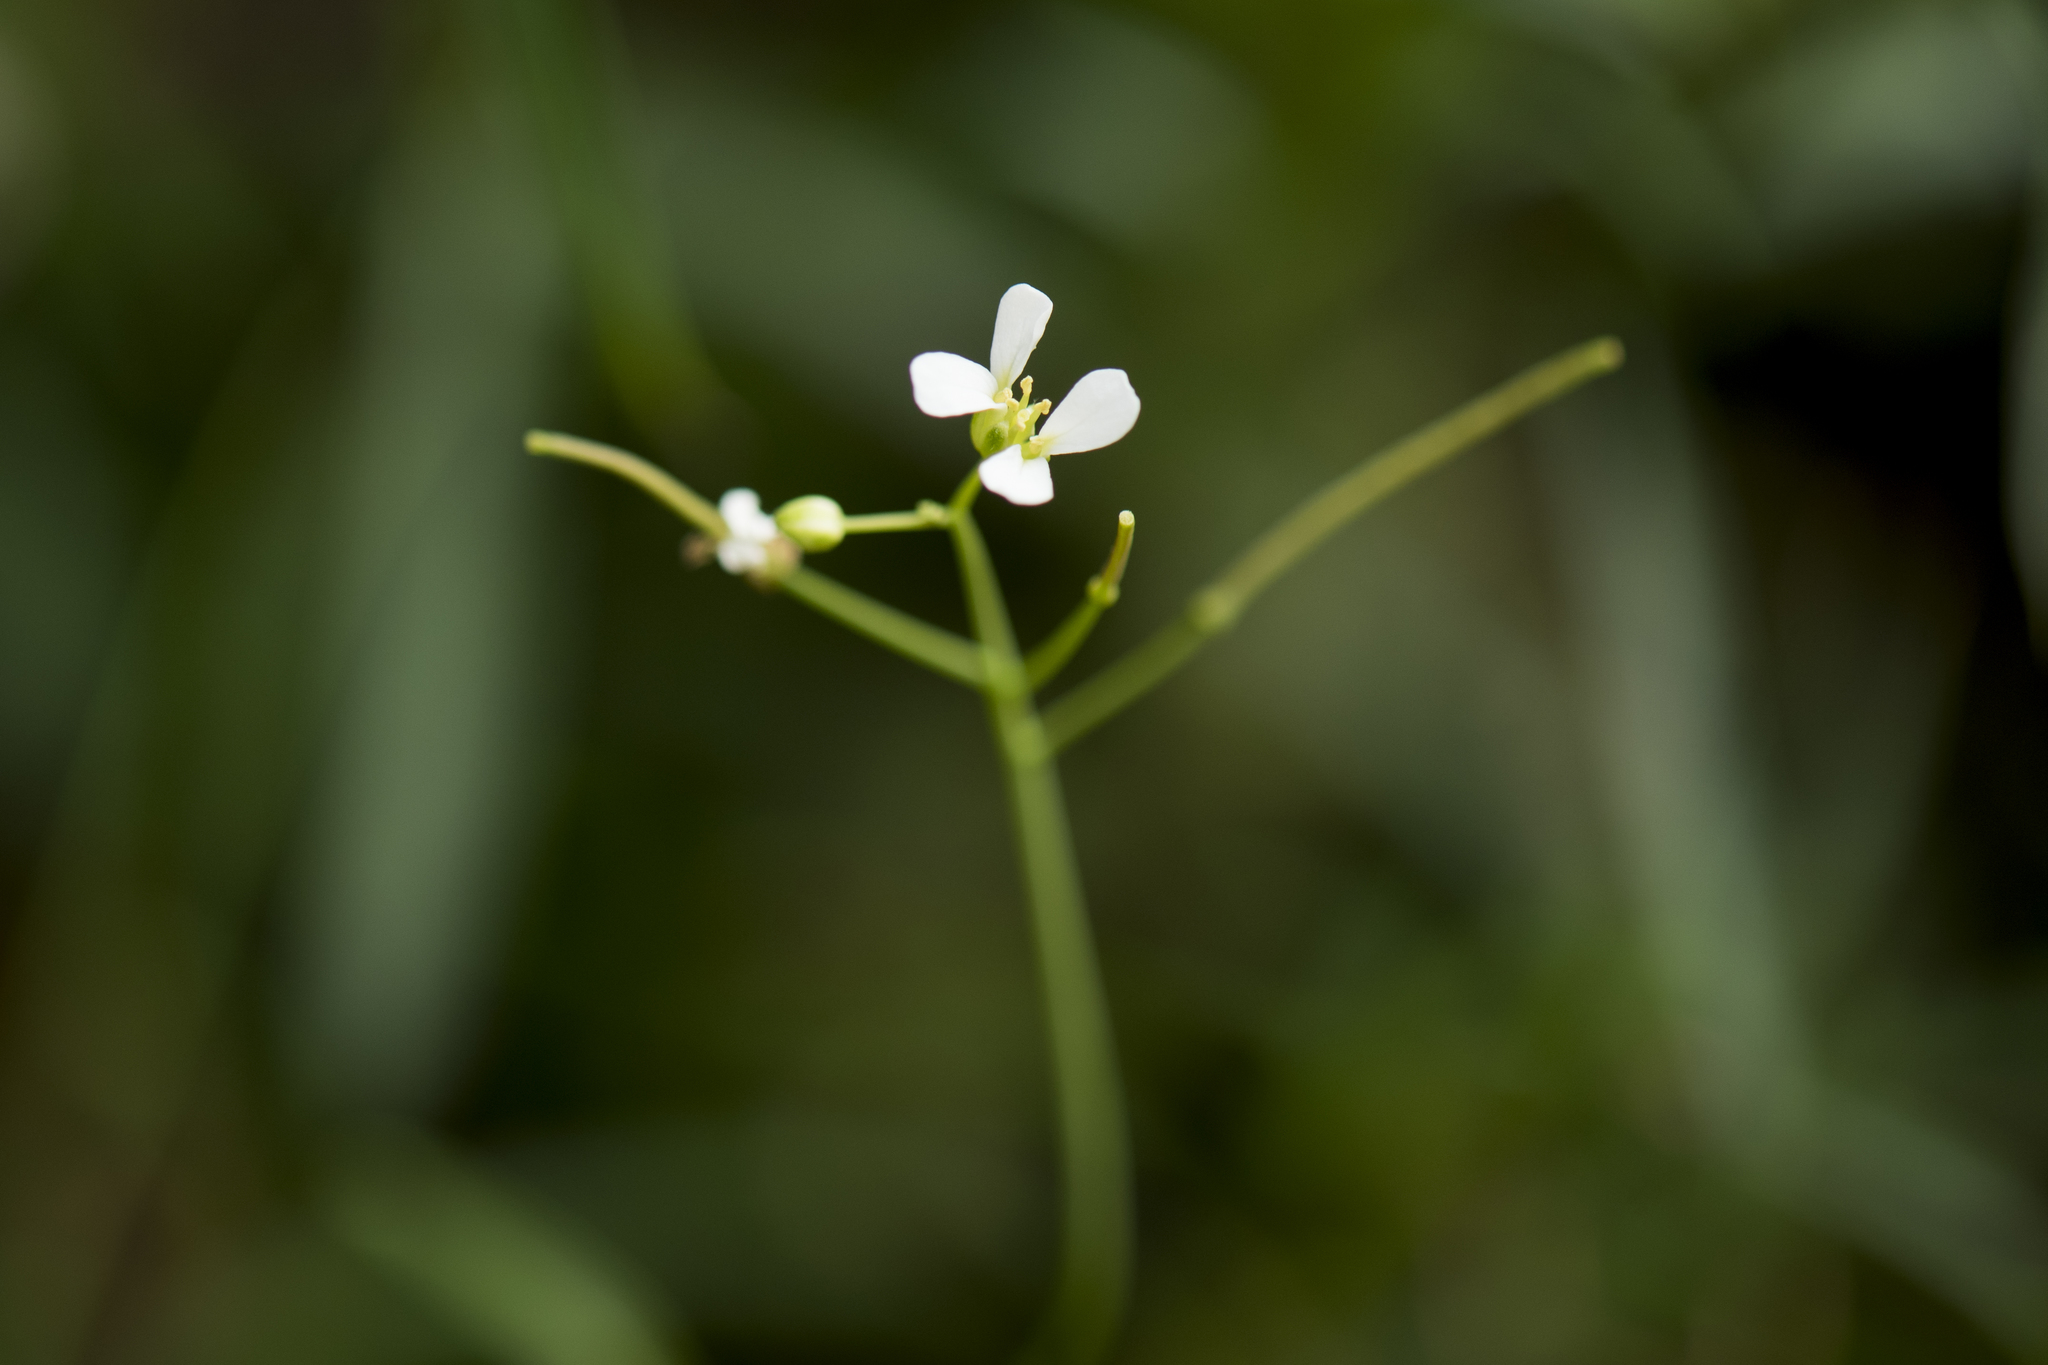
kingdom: Plantae
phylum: Tracheophyta
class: Magnoliopsida
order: Brassicales
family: Brassicaceae
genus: Arabidopsis
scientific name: Arabidopsis lyrata
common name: Lyrate rockcress
